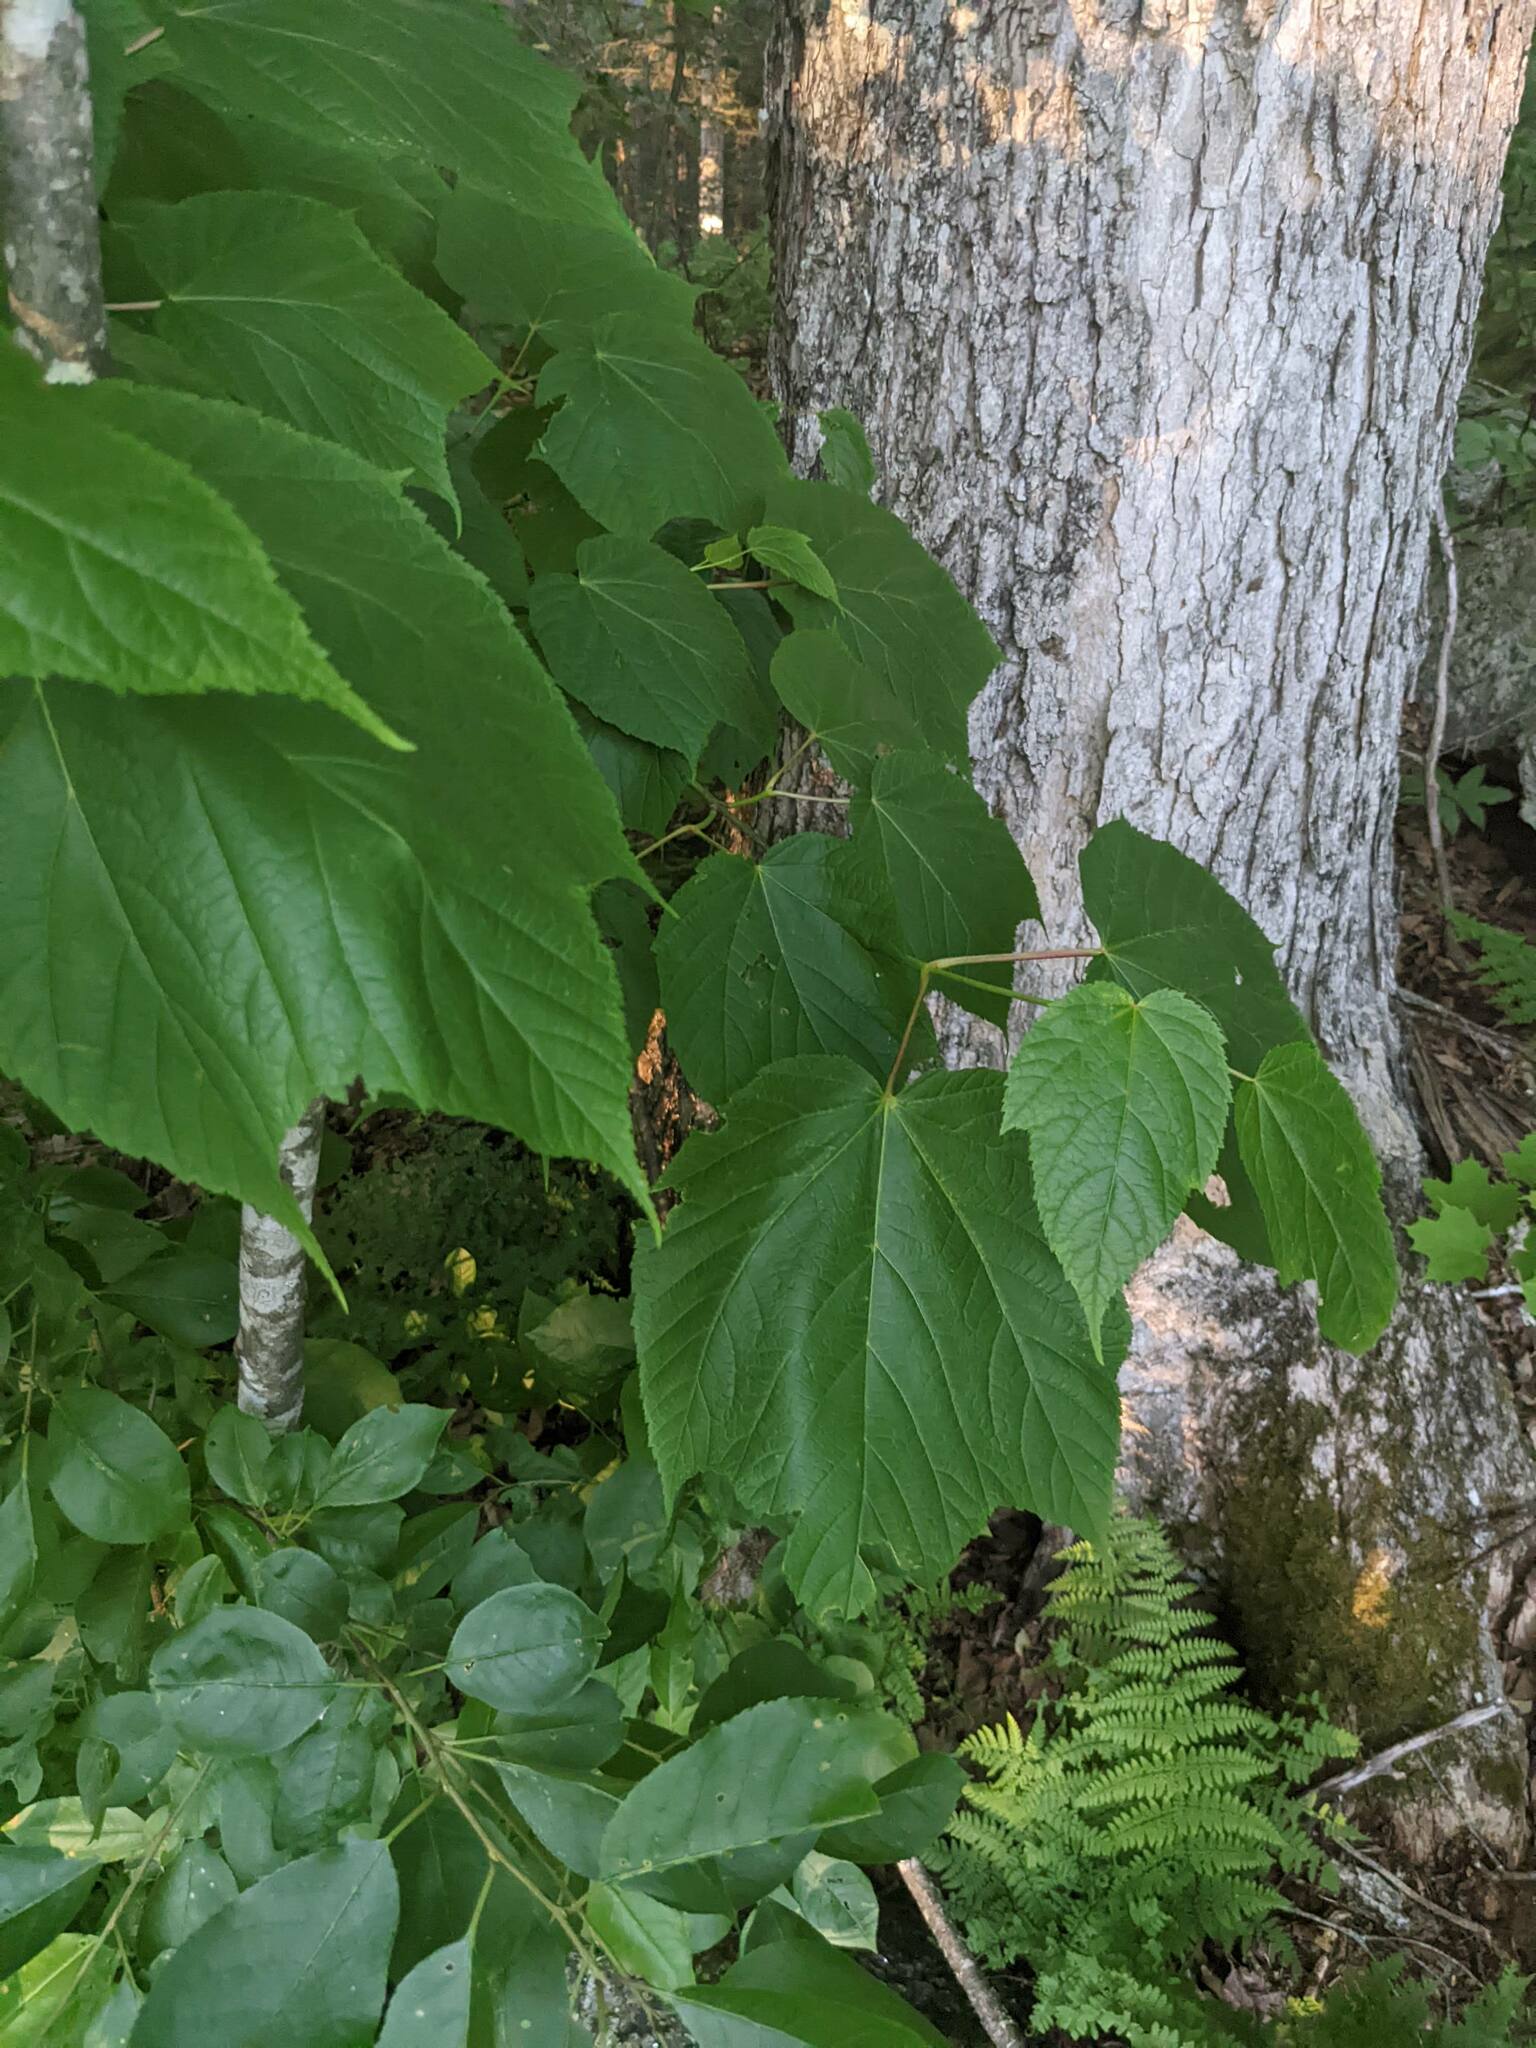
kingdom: Plantae
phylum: Tracheophyta
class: Magnoliopsida
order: Sapindales
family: Sapindaceae
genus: Acer
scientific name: Acer pensylvanicum
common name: Moosewood
